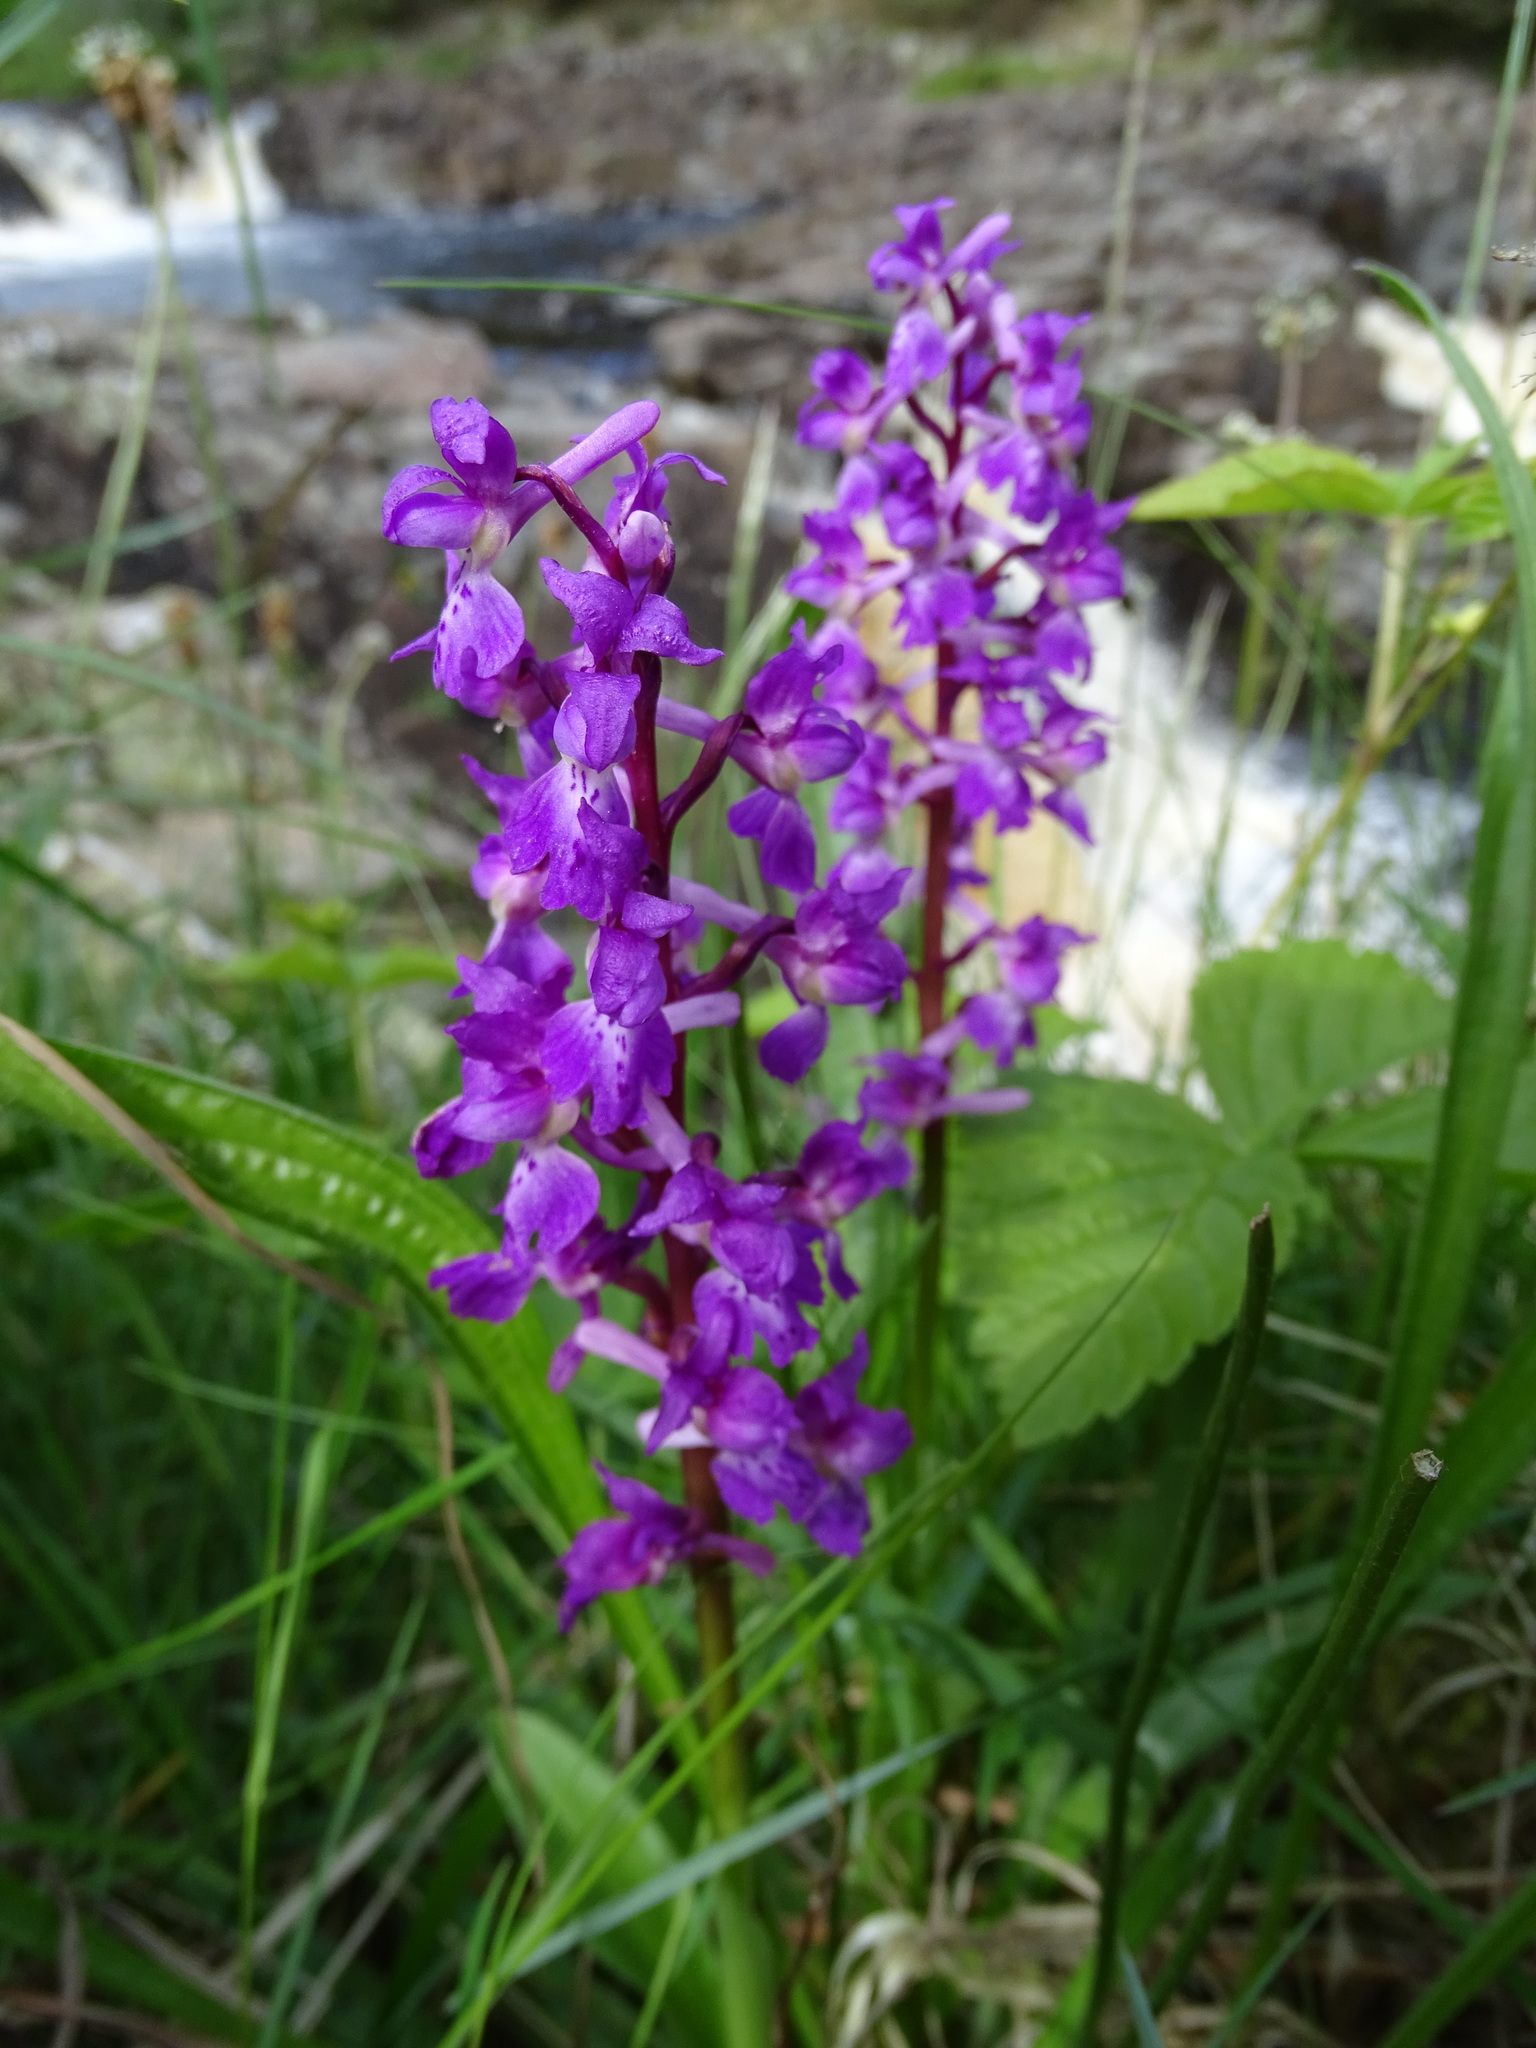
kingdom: Plantae
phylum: Tracheophyta
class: Liliopsida
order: Asparagales
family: Orchidaceae
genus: Orchis
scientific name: Orchis mascula
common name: Early-purple orchid
